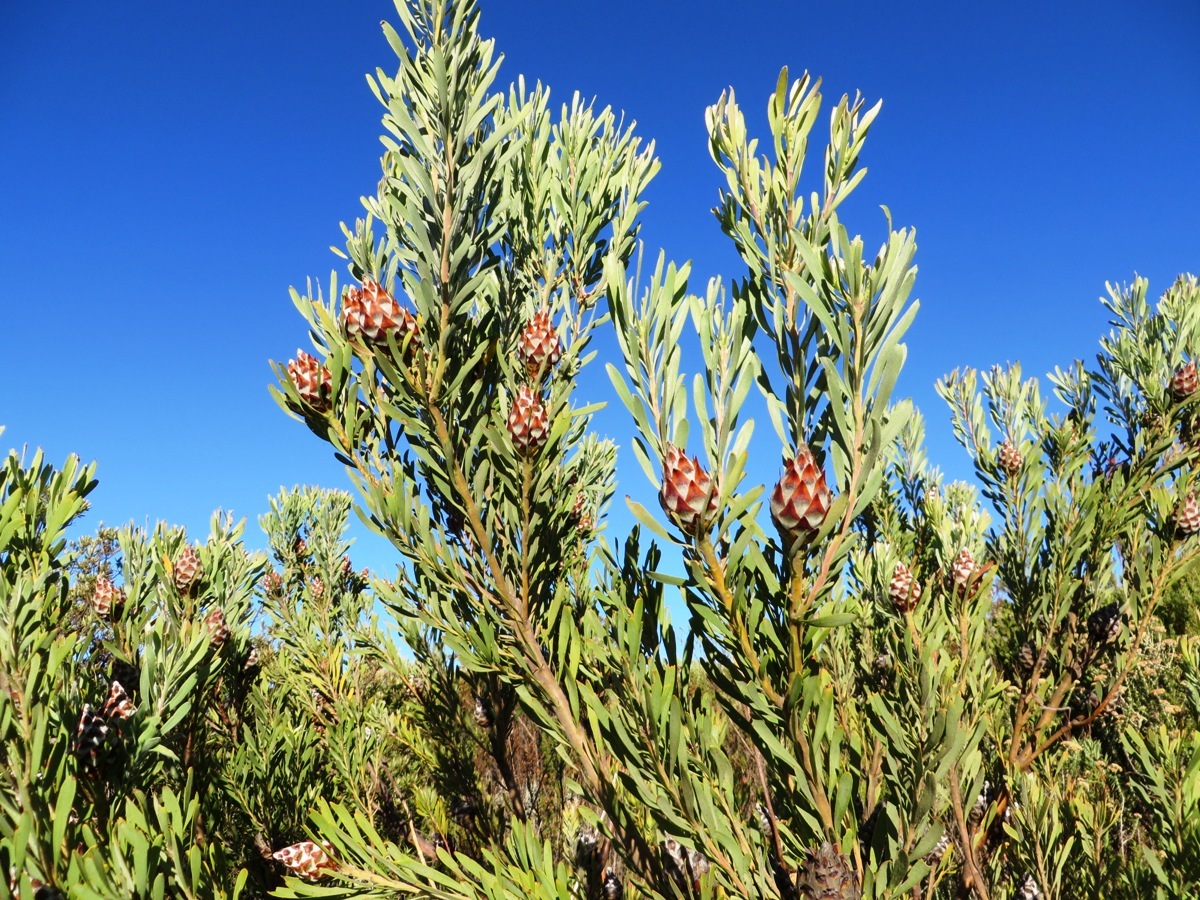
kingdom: Plantae
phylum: Tracheophyta
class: Magnoliopsida
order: Proteales
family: Proteaceae
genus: Leucadendron
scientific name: Leucadendron rubrum
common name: Spinning top
